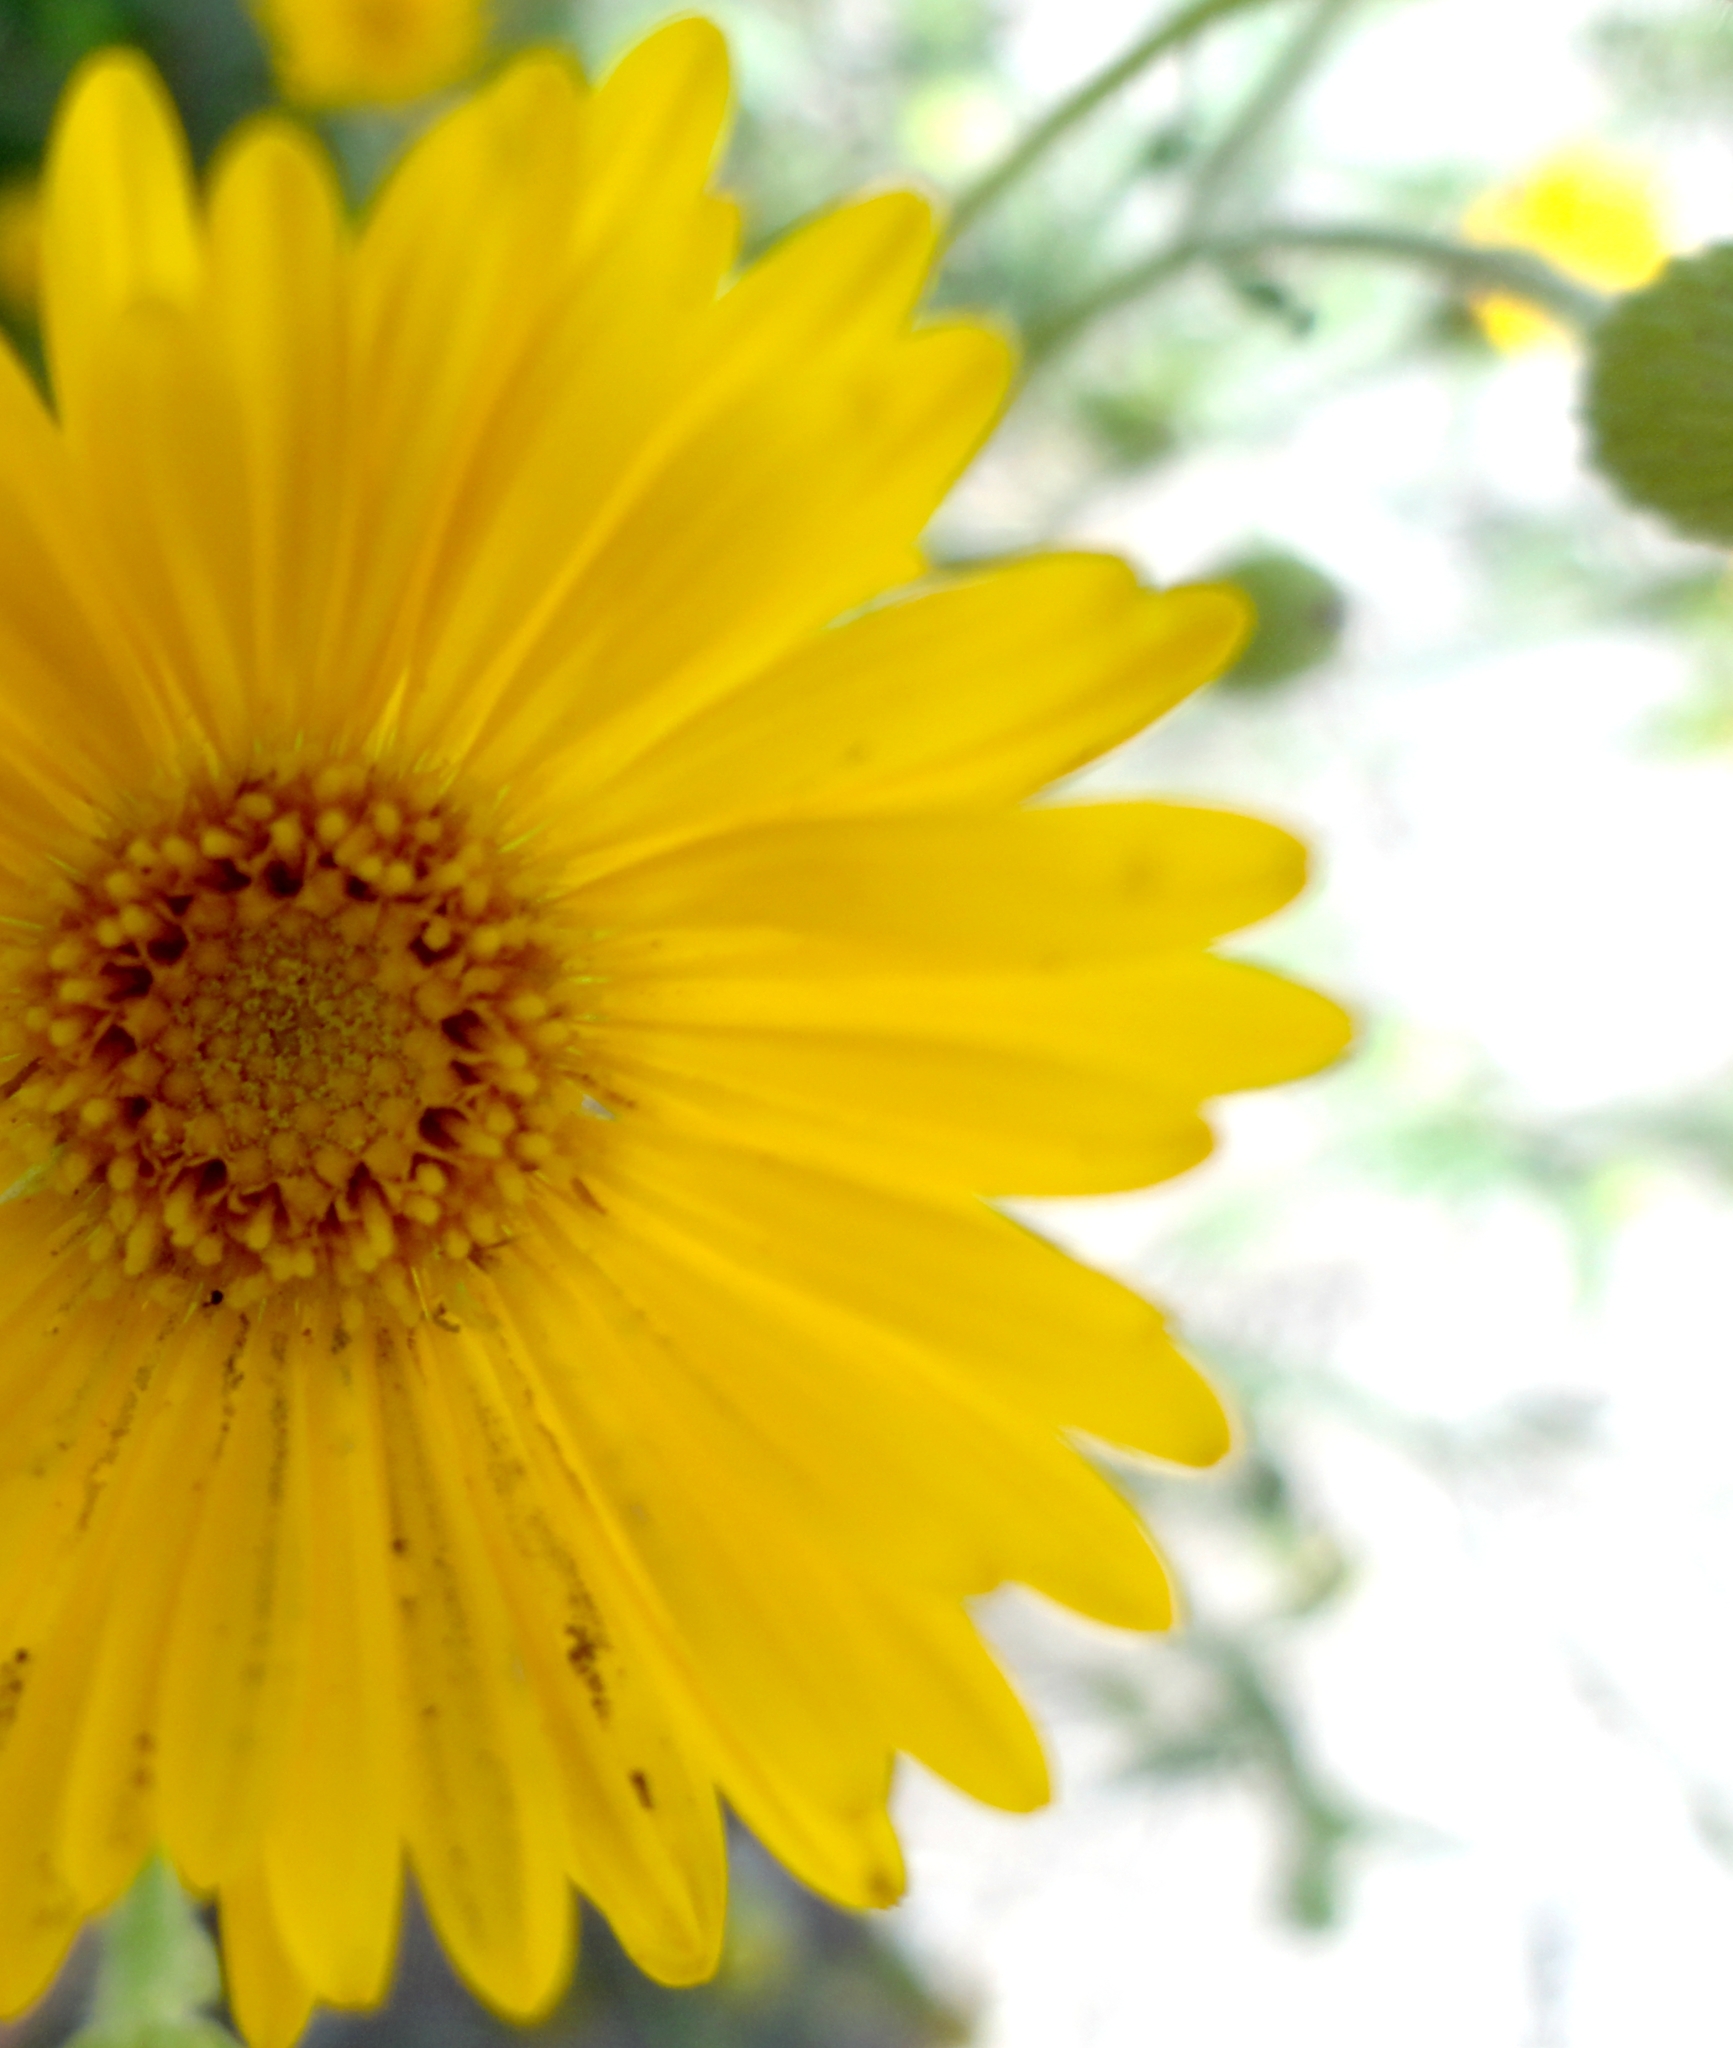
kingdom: Plantae
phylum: Tracheophyta
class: Magnoliopsida
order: Asterales
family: Asteraceae
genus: Verbesina
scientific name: Verbesina encelioides
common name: Golden crownbeard
